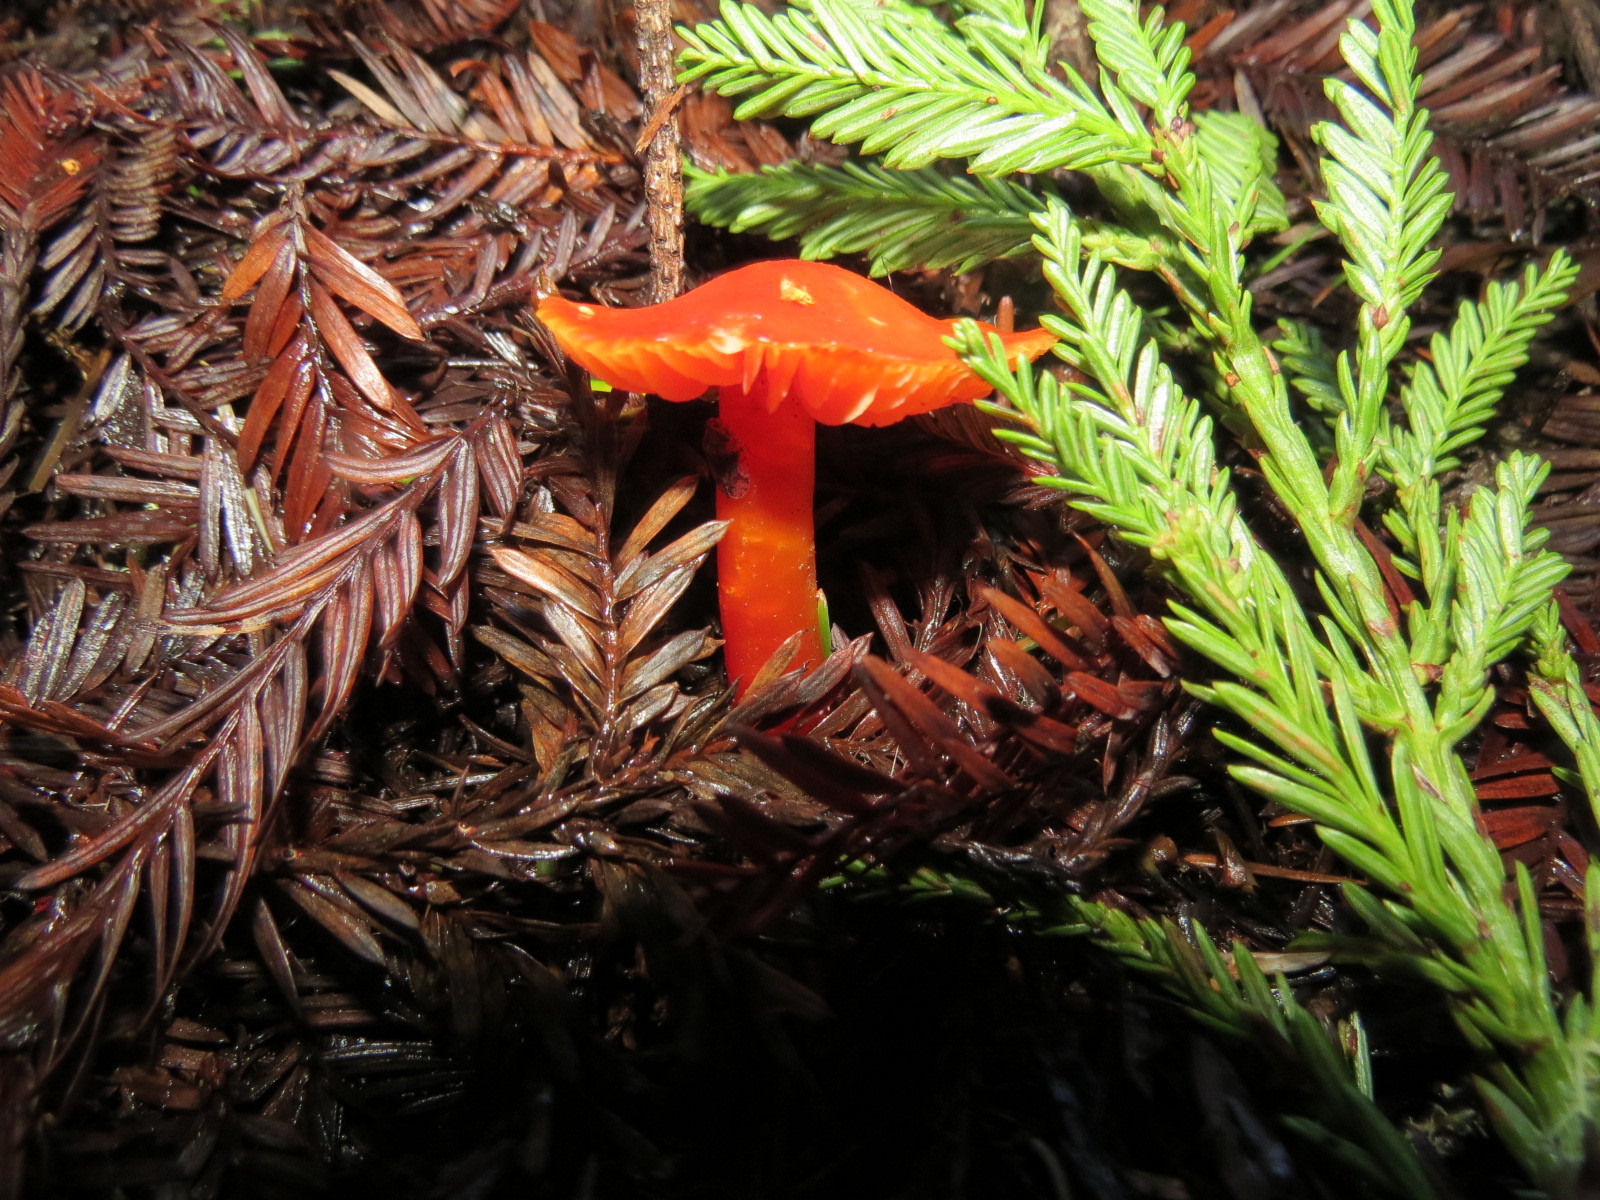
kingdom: Fungi
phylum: Basidiomycota
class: Agaricomycetes
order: Agaricales
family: Hygrophoraceae
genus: Hygrocybe
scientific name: Hygrocybe coccinea
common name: Scarlet hood
